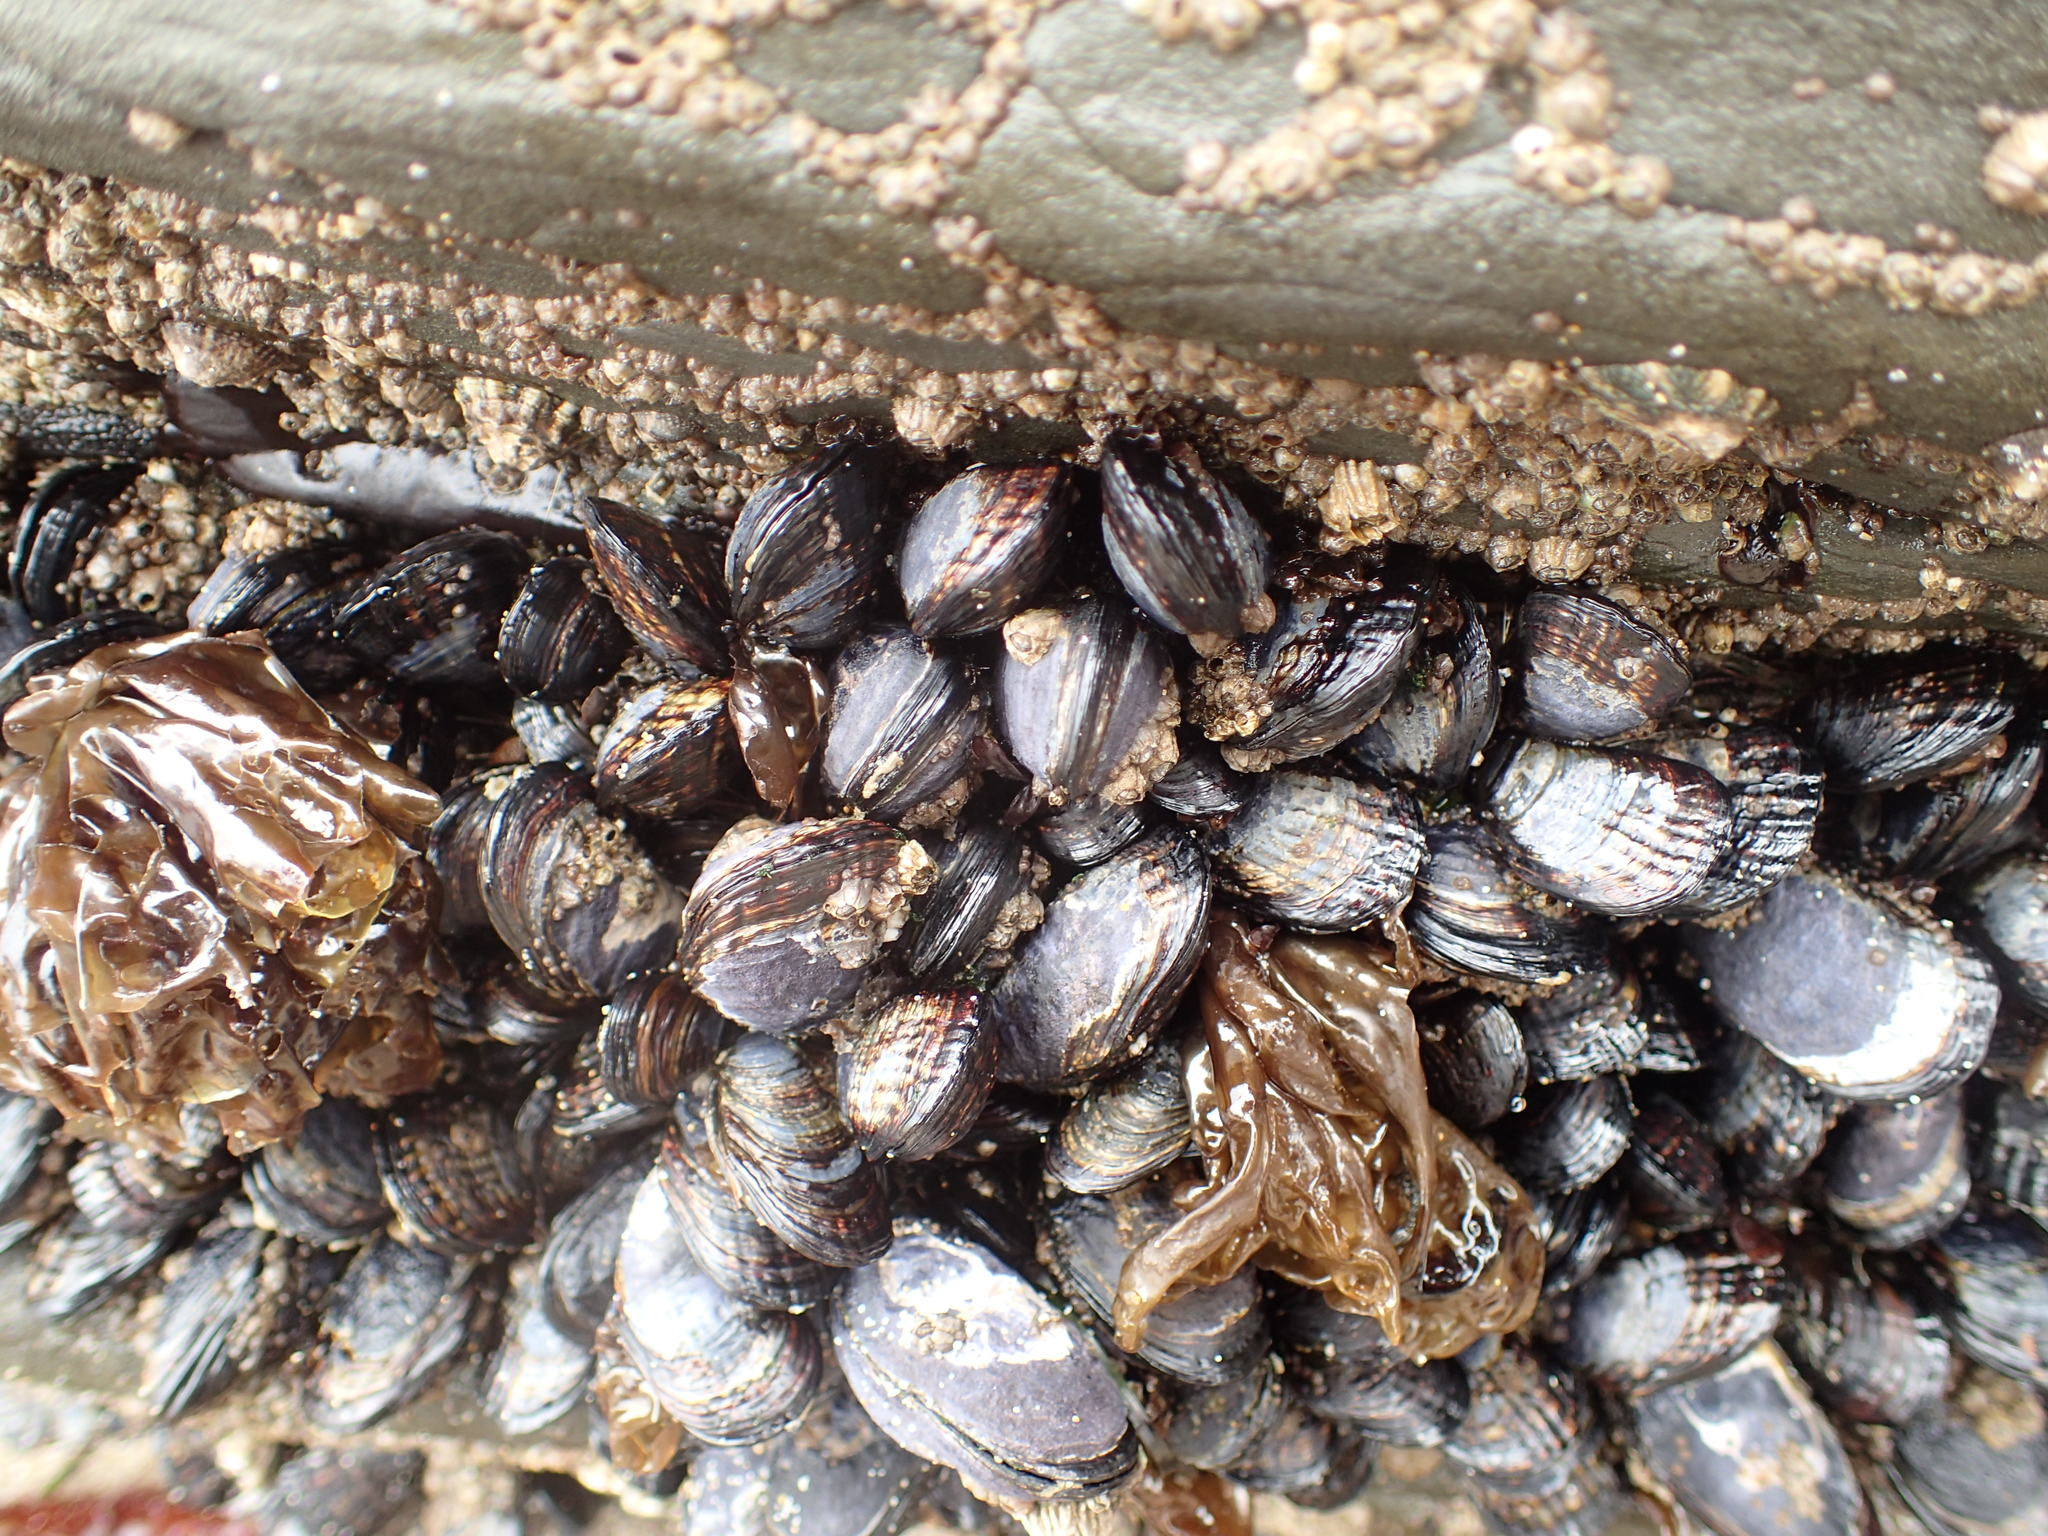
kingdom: Animalia
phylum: Mollusca
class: Bivalvia
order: Mytilida
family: Mytilidae
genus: Mytilus
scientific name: Mytilus californianus
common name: California mussel
